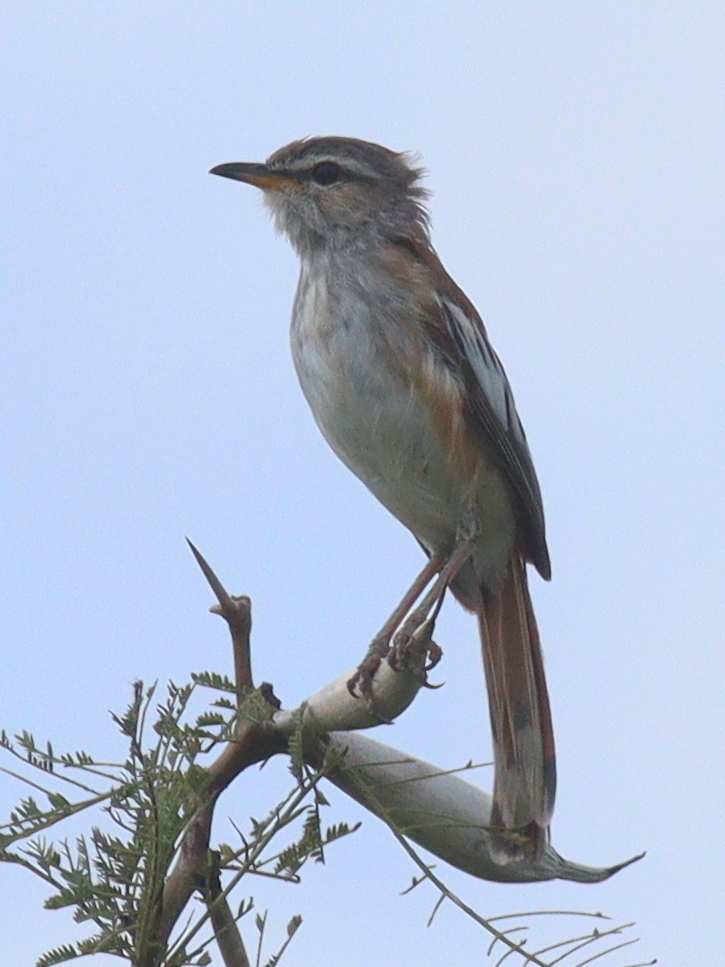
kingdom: Animalia
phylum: Chordata
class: Aves
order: Passeriformes
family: Muscicapidae
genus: Erythropygia
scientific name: Erythropygia leucophrys
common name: White-browed scrub robin
